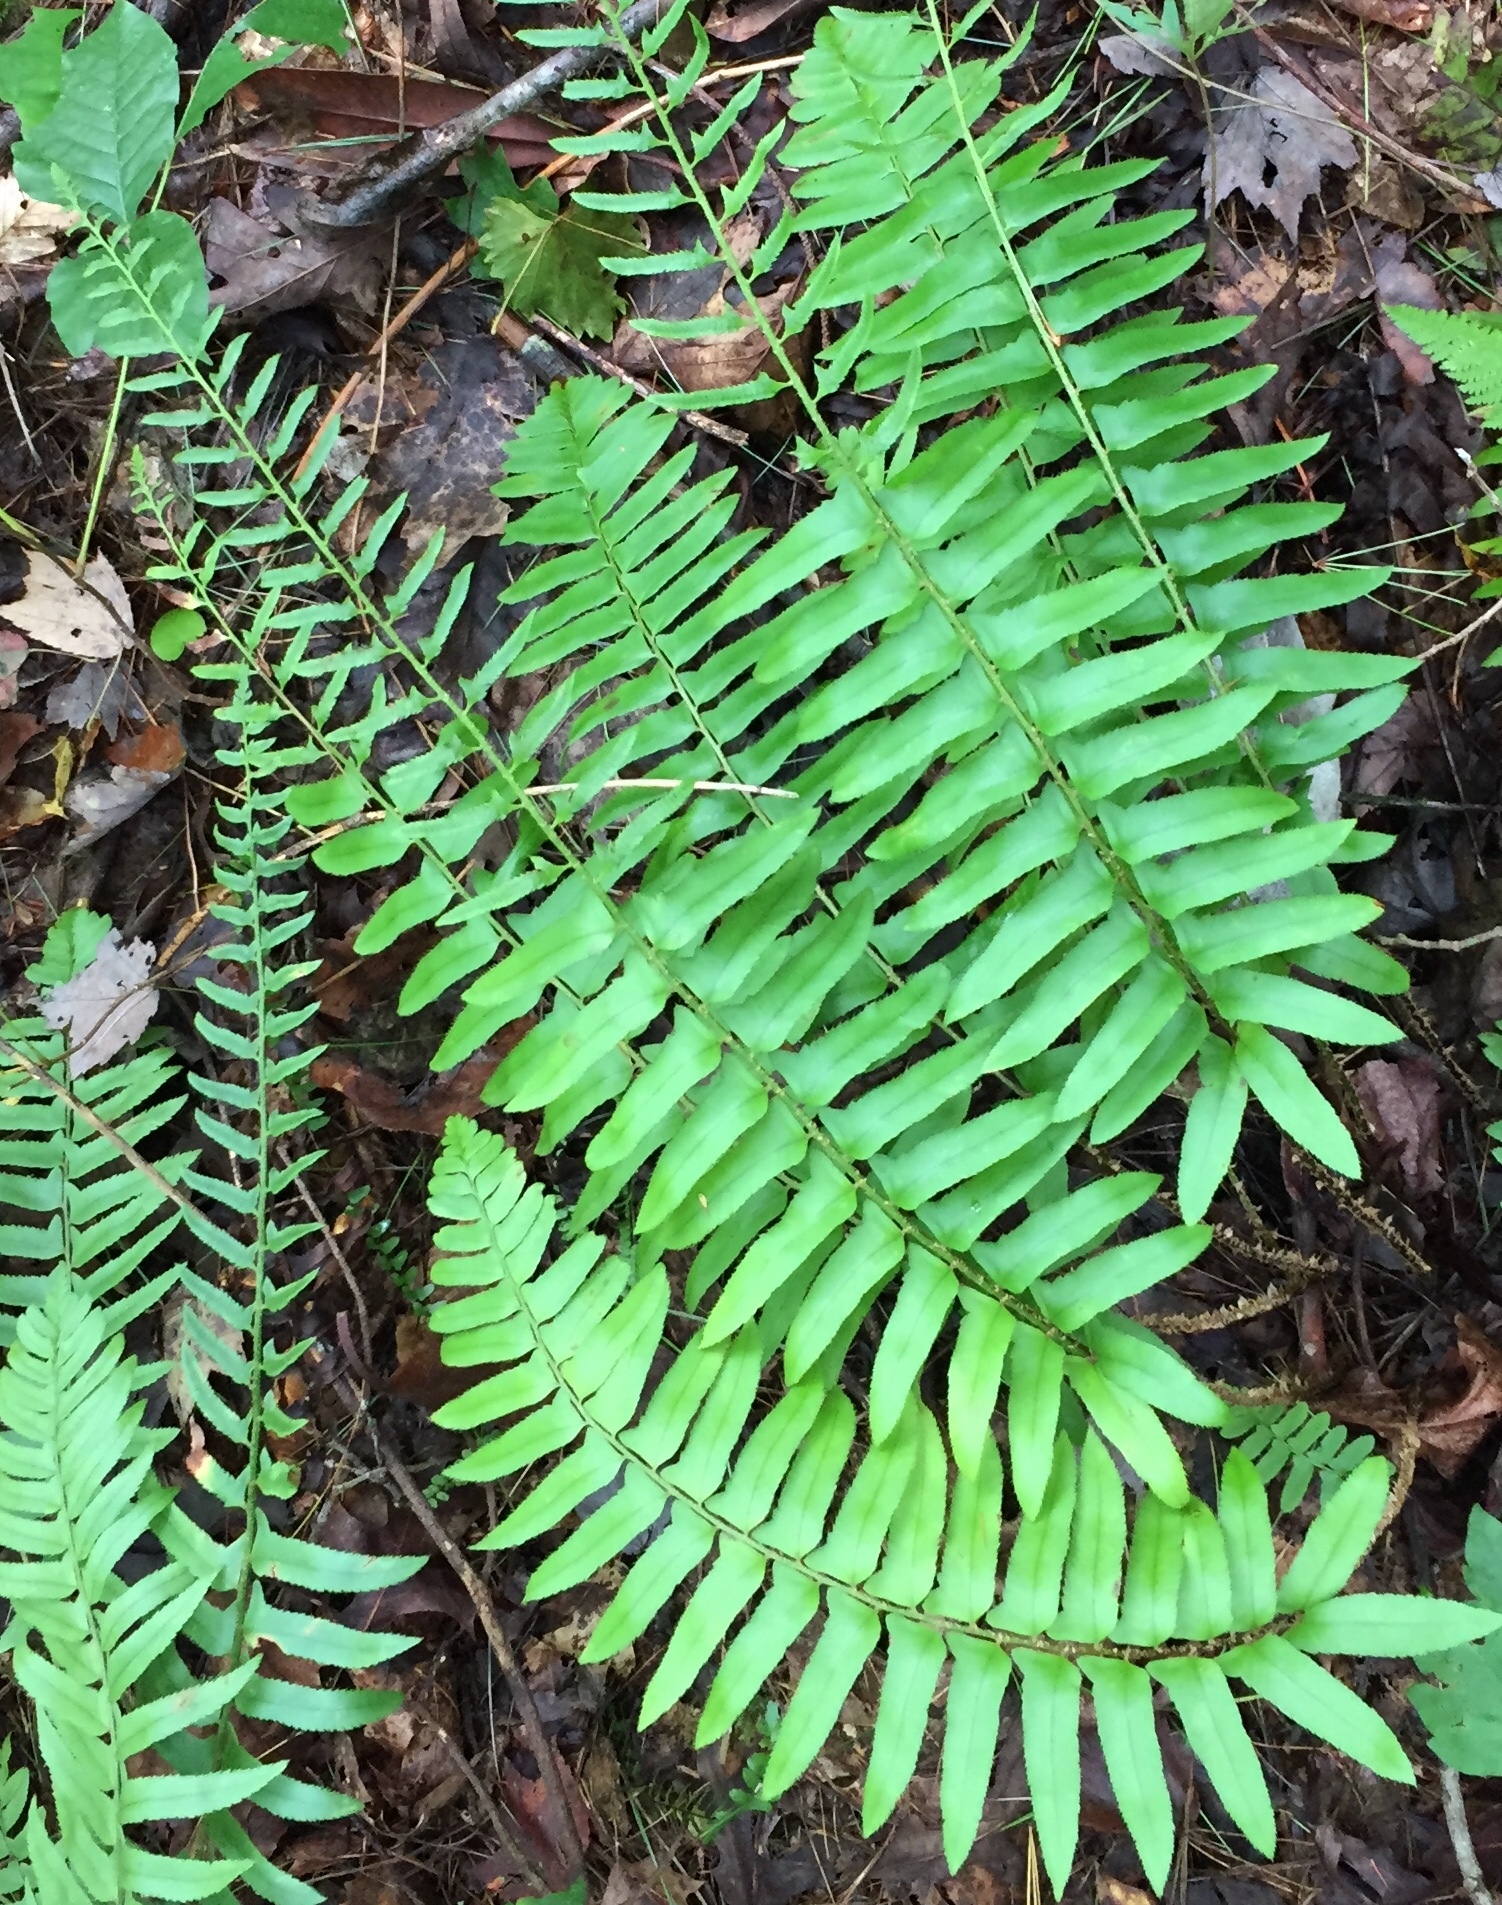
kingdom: Plantae
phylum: Tracheophyta
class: Polypodiopsida
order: Polypodiales
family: Dryopteridaceae
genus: Polystichum
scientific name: Polystichum acrostichoides
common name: Christmas fern
